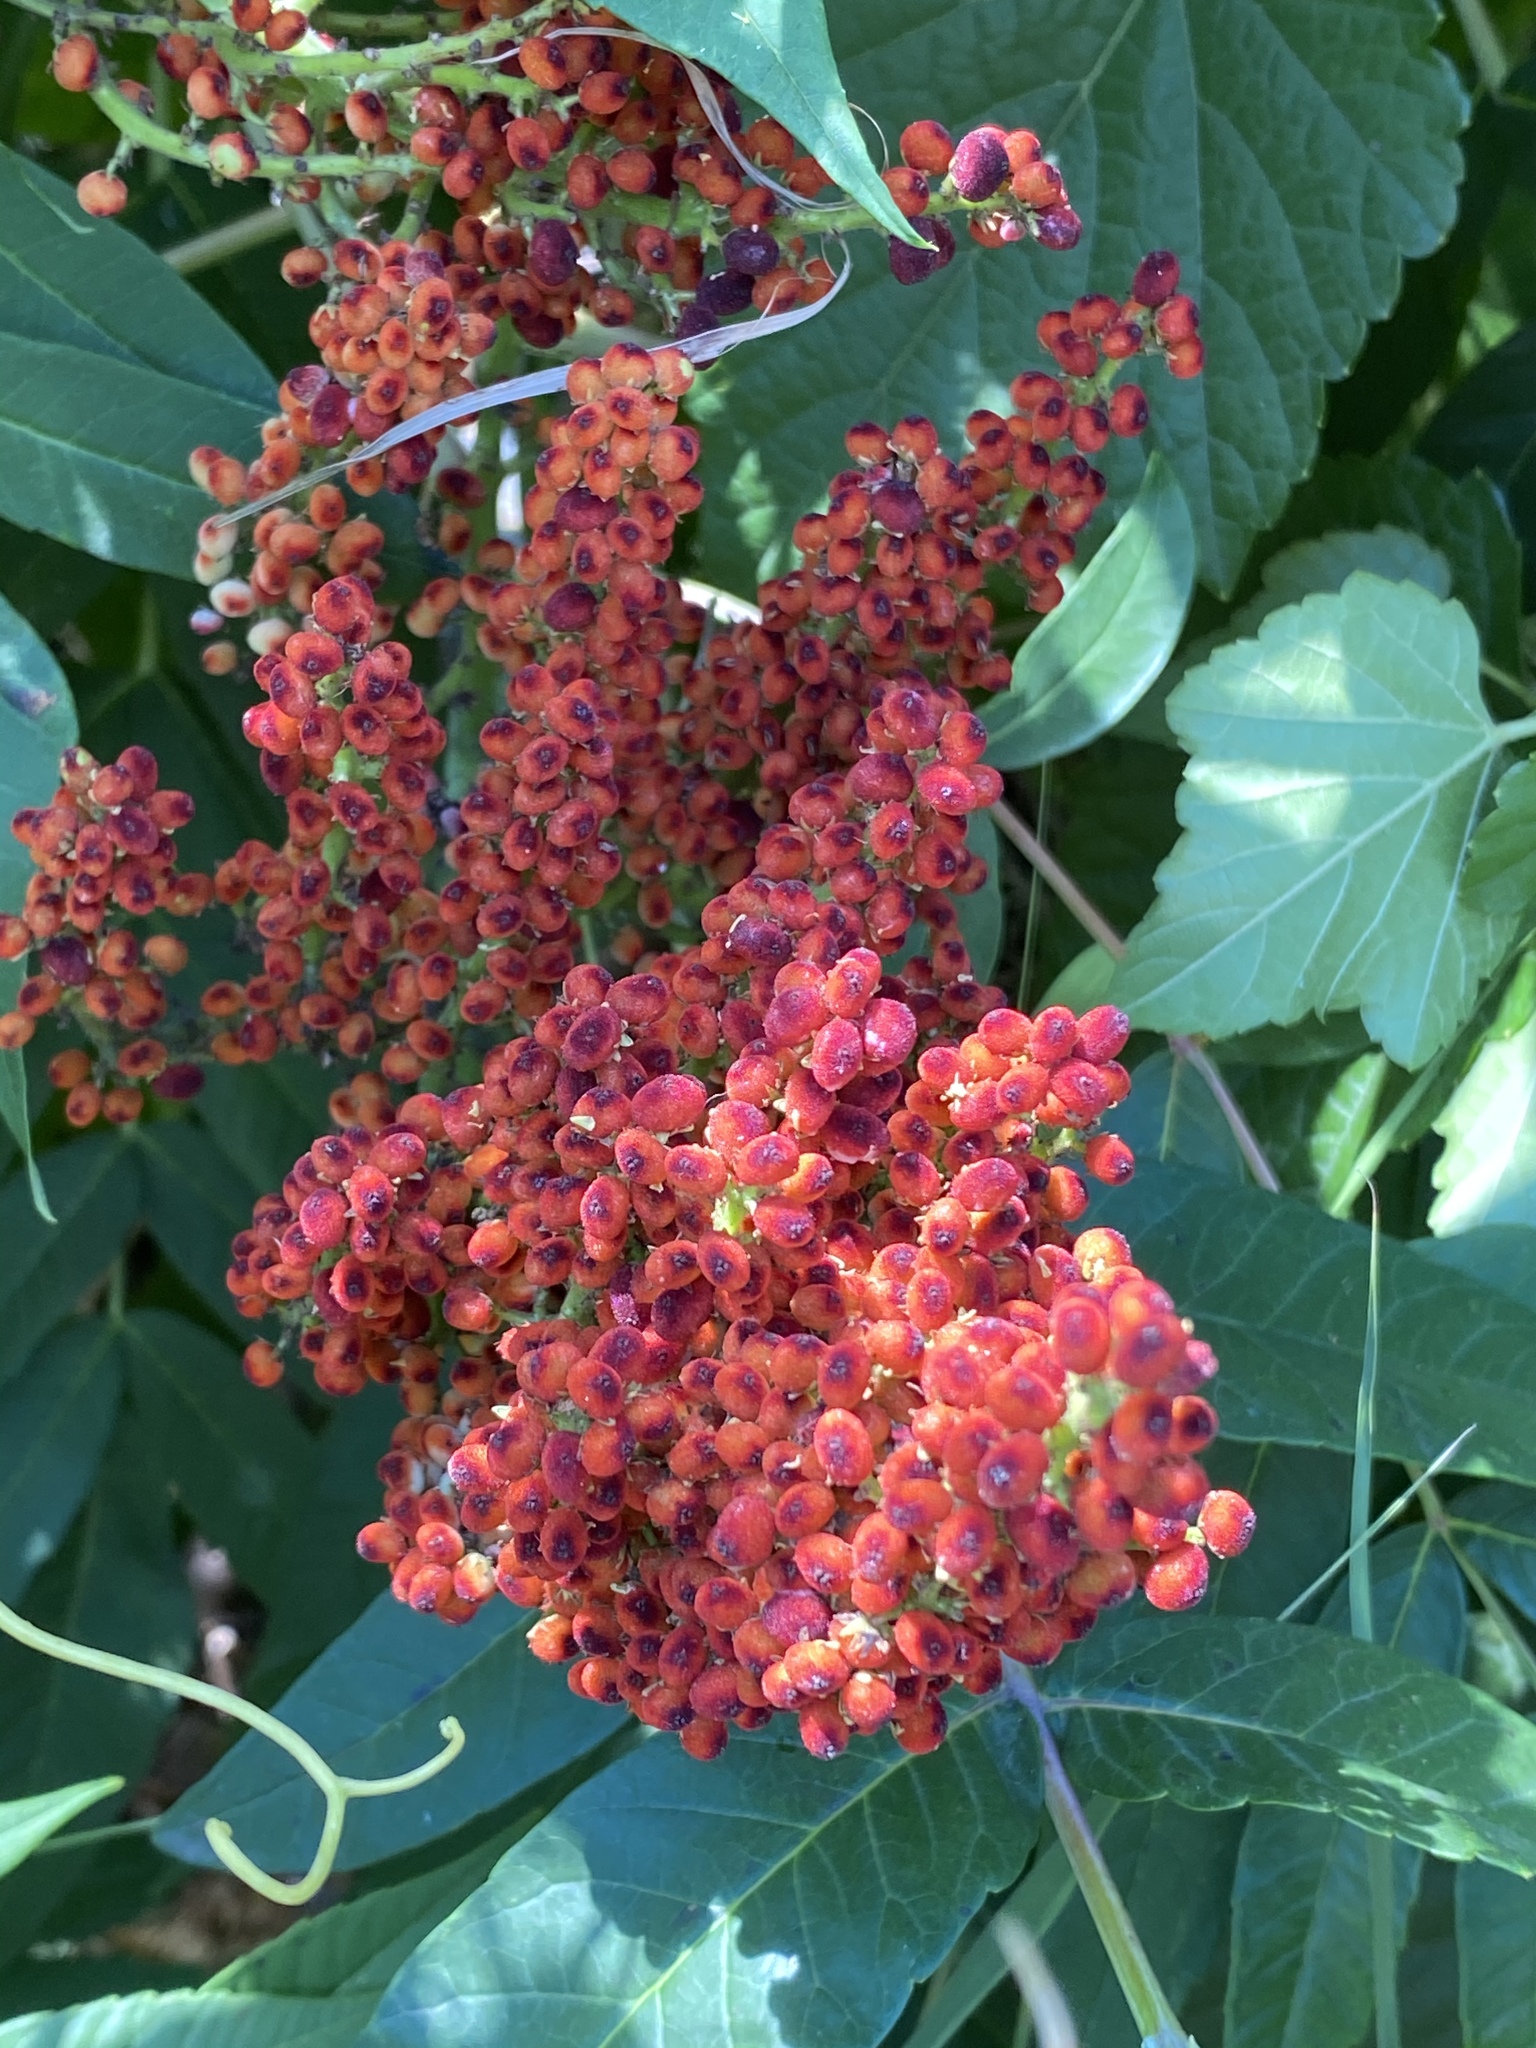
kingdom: Plantae
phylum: Tracheophyta
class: Magnoliopsida
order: Sapindales
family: Anacardiaceae
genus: Rhus
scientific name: Rhus glabra
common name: Scarlet sumac
